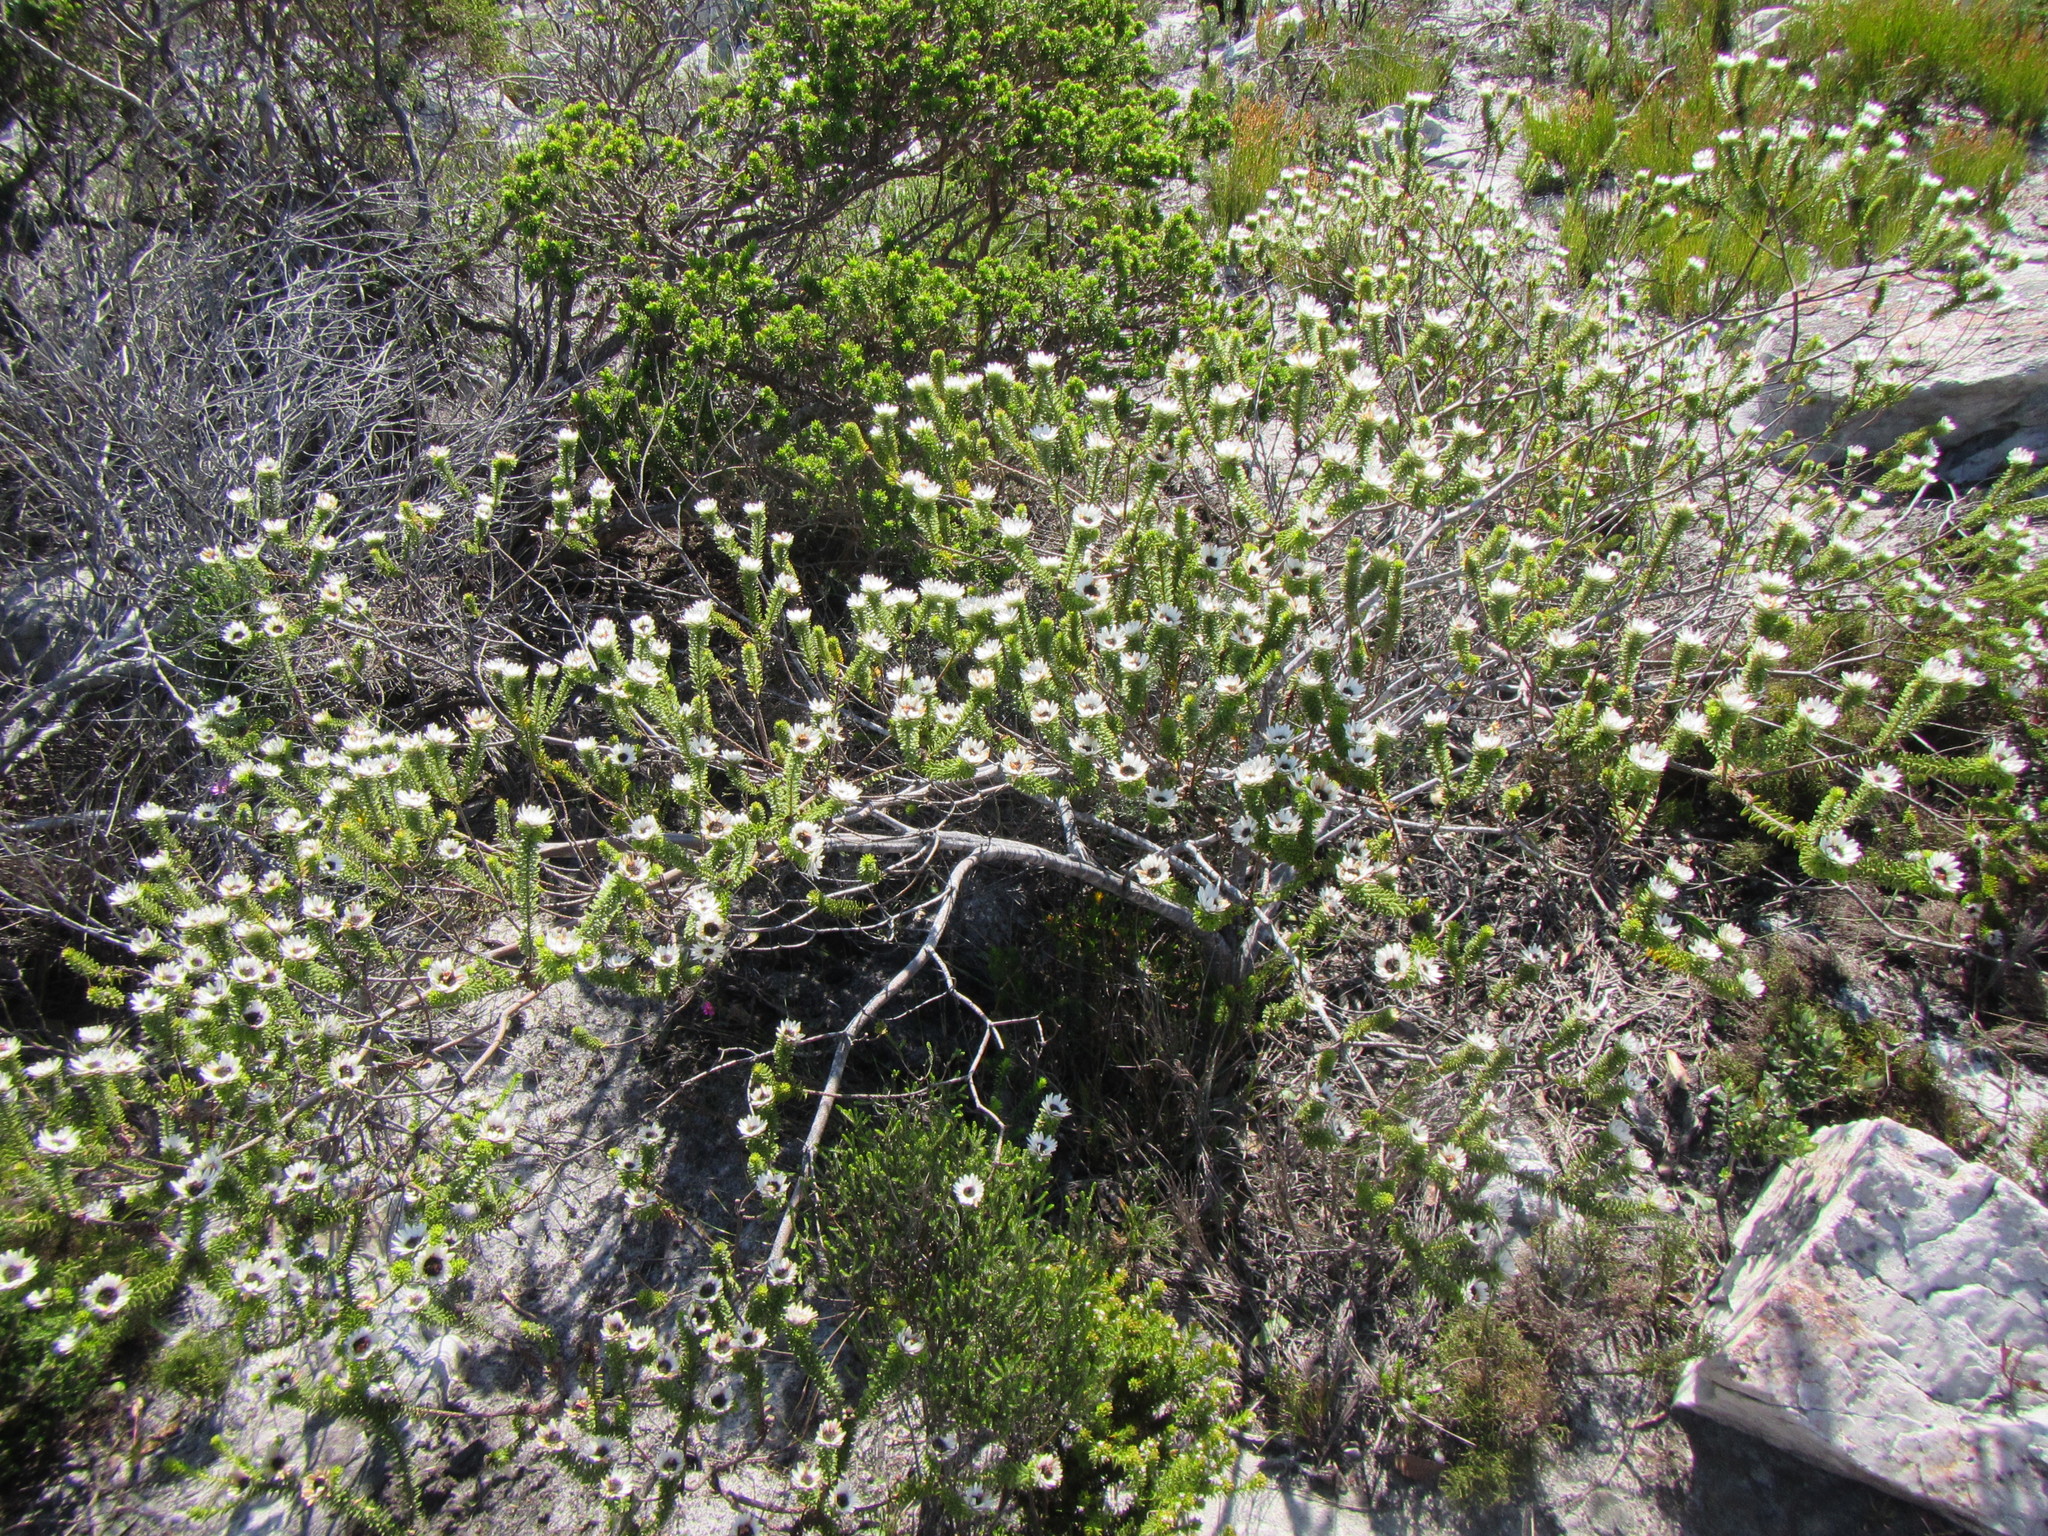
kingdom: Plantae
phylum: Tracheophyta
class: Magnoliopsida
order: Bruniales
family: Bruniaceae
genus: Staavia
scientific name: Staavia dodii
